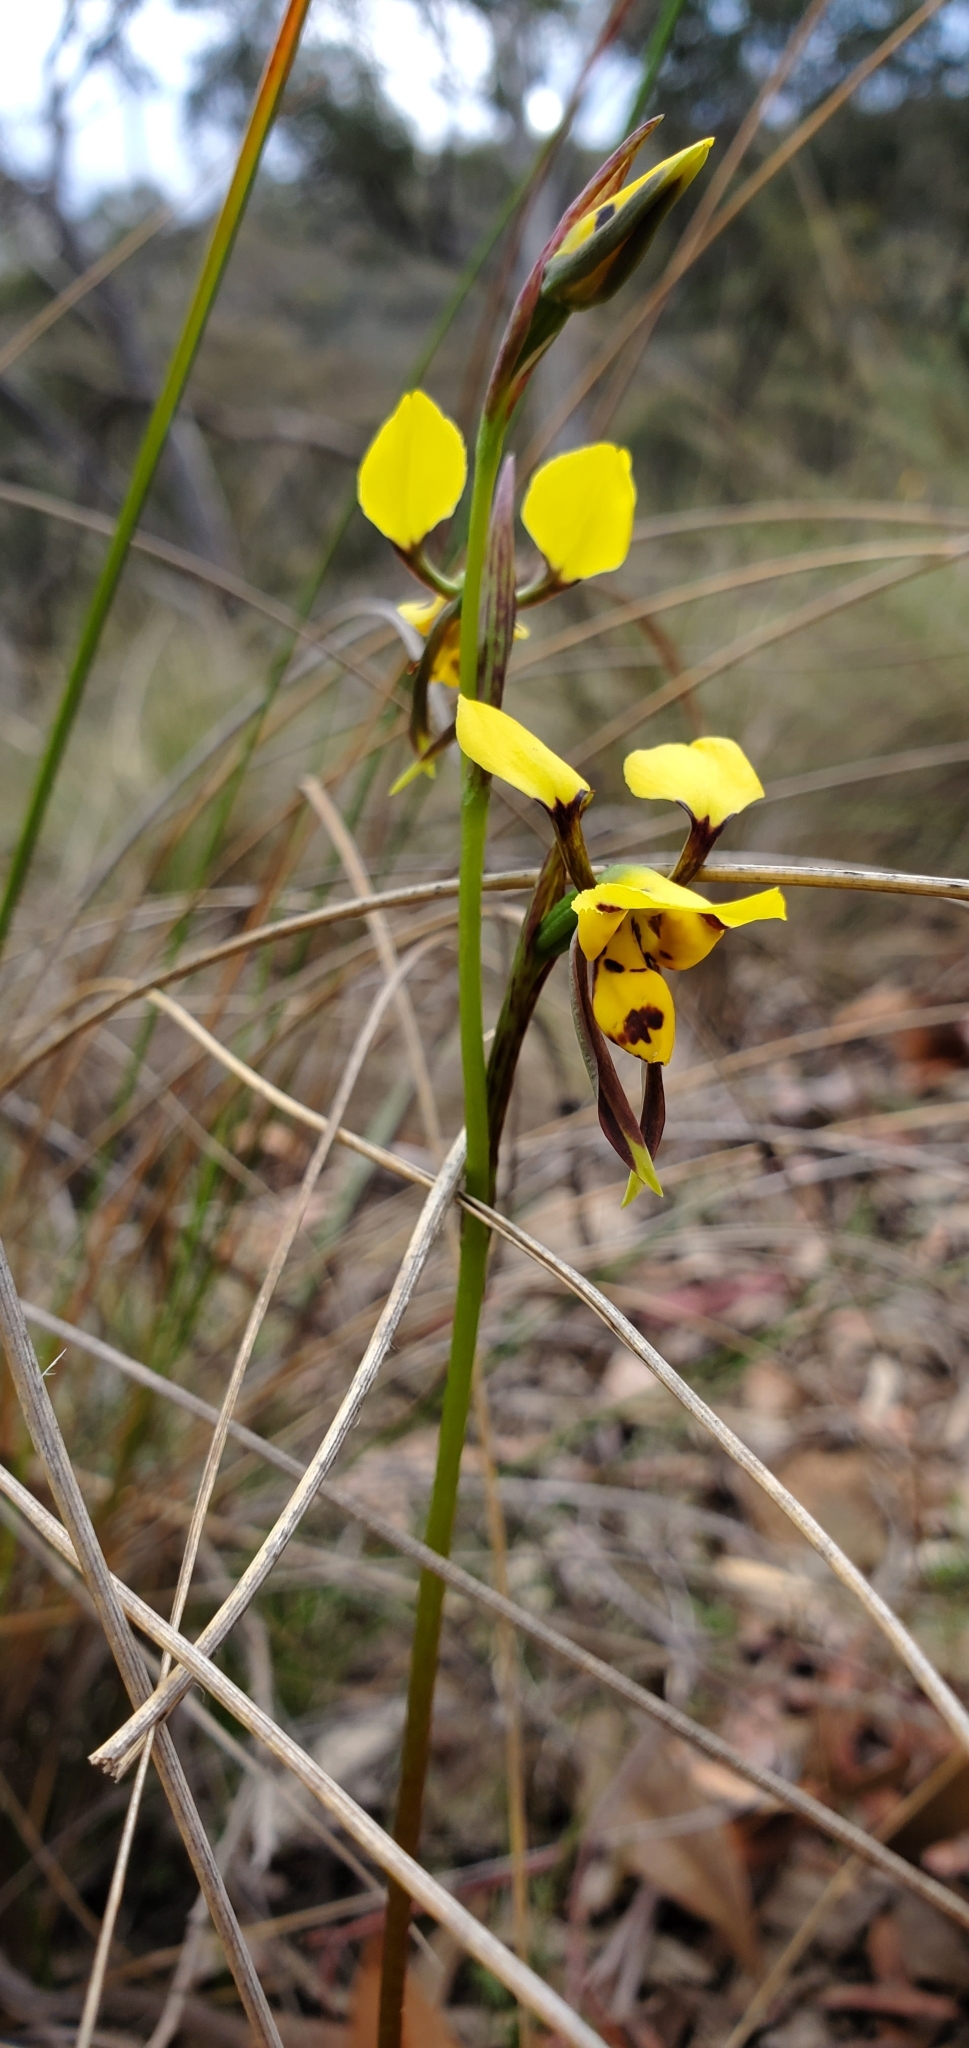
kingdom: Plantae
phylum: Tracheophyta
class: Liliopsida
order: Asparagales
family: Orchidaceae
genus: Diuris
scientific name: Diuris sulphurea
